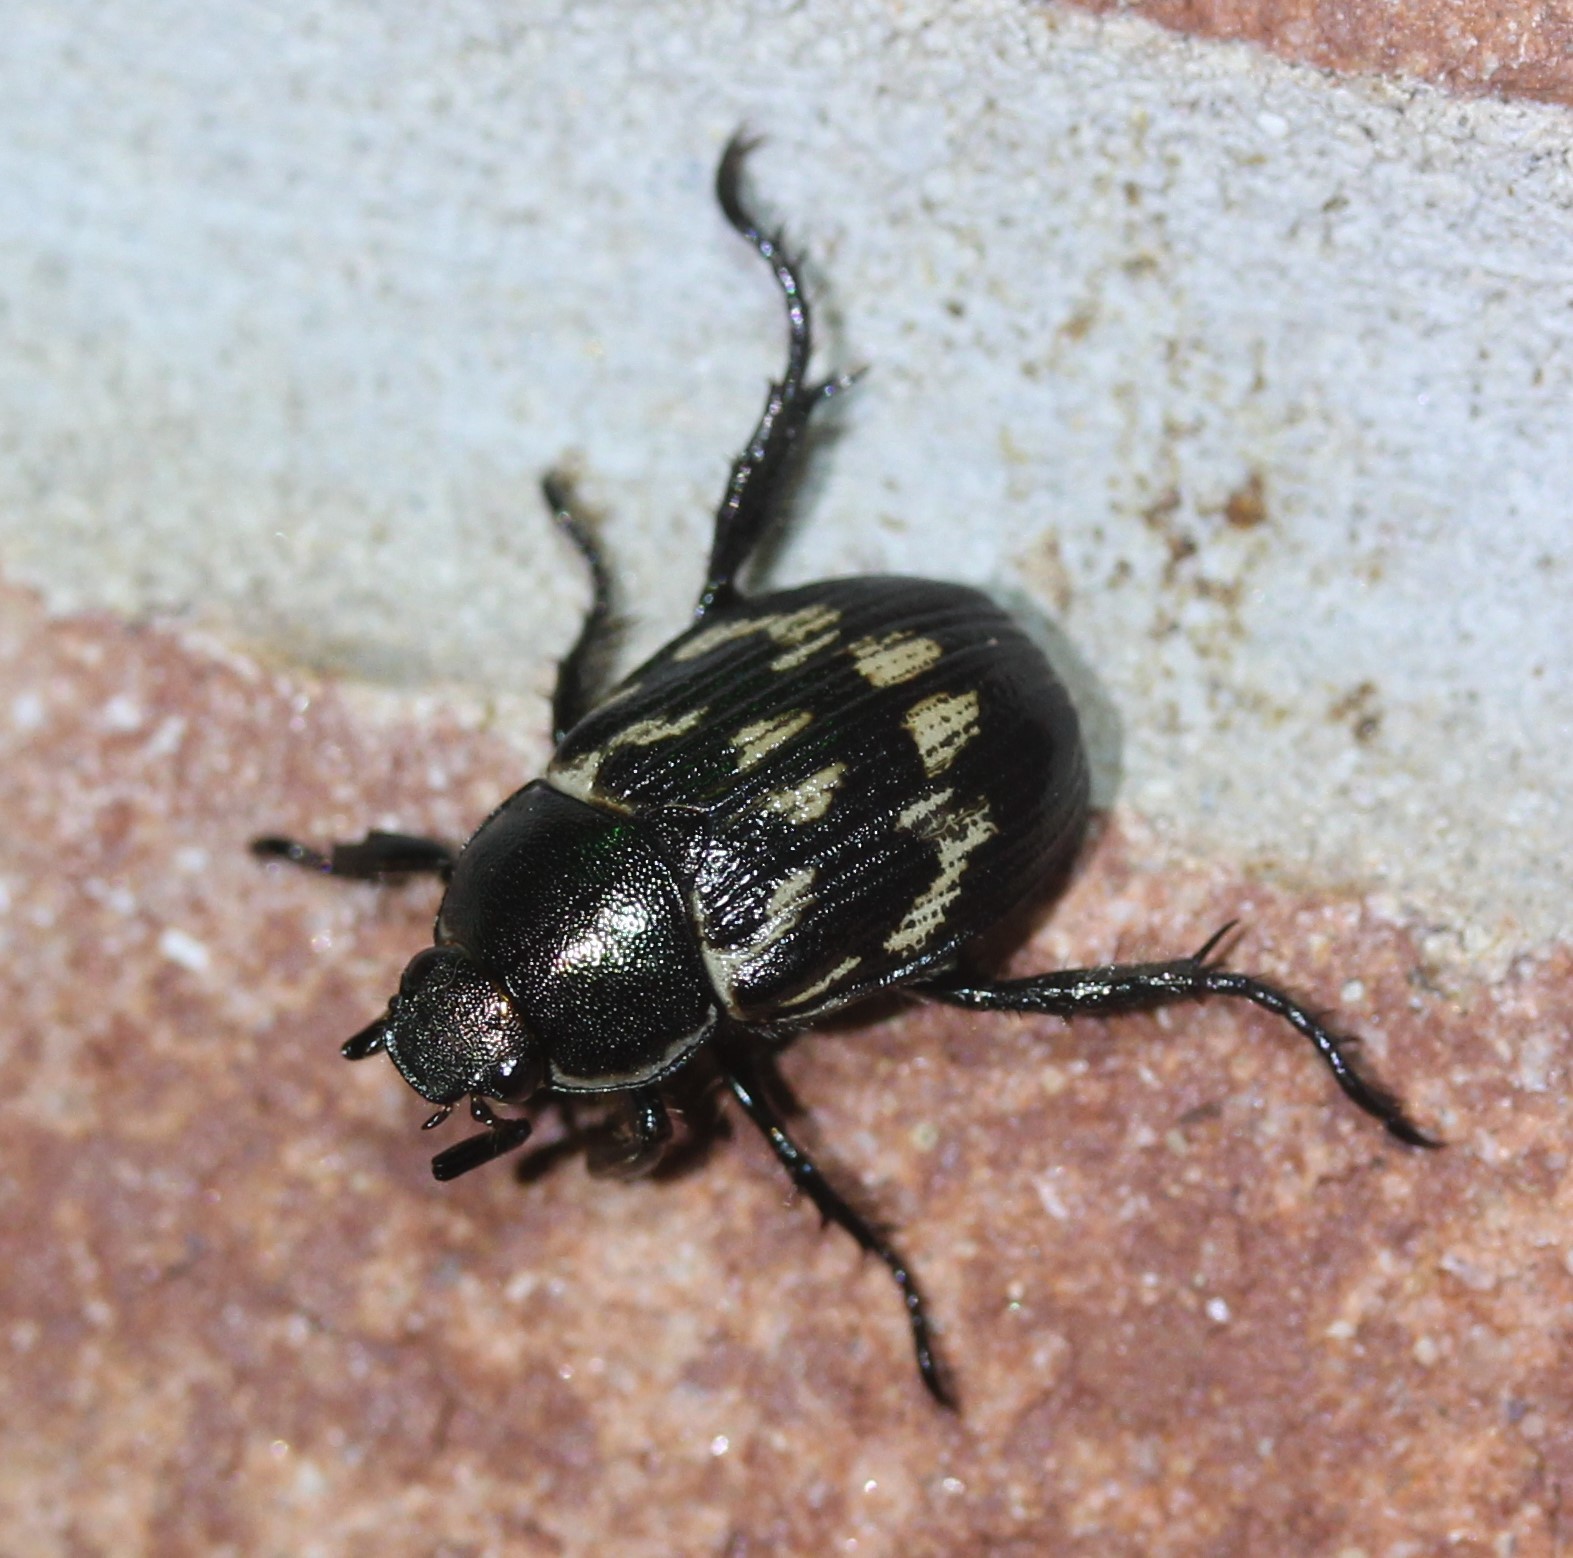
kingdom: Animalia
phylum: Arthropoda
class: Insecta
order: Coleoptera
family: Scarabaeidae
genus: Exomala
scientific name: Exomala orientalis
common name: Oriental beetle
